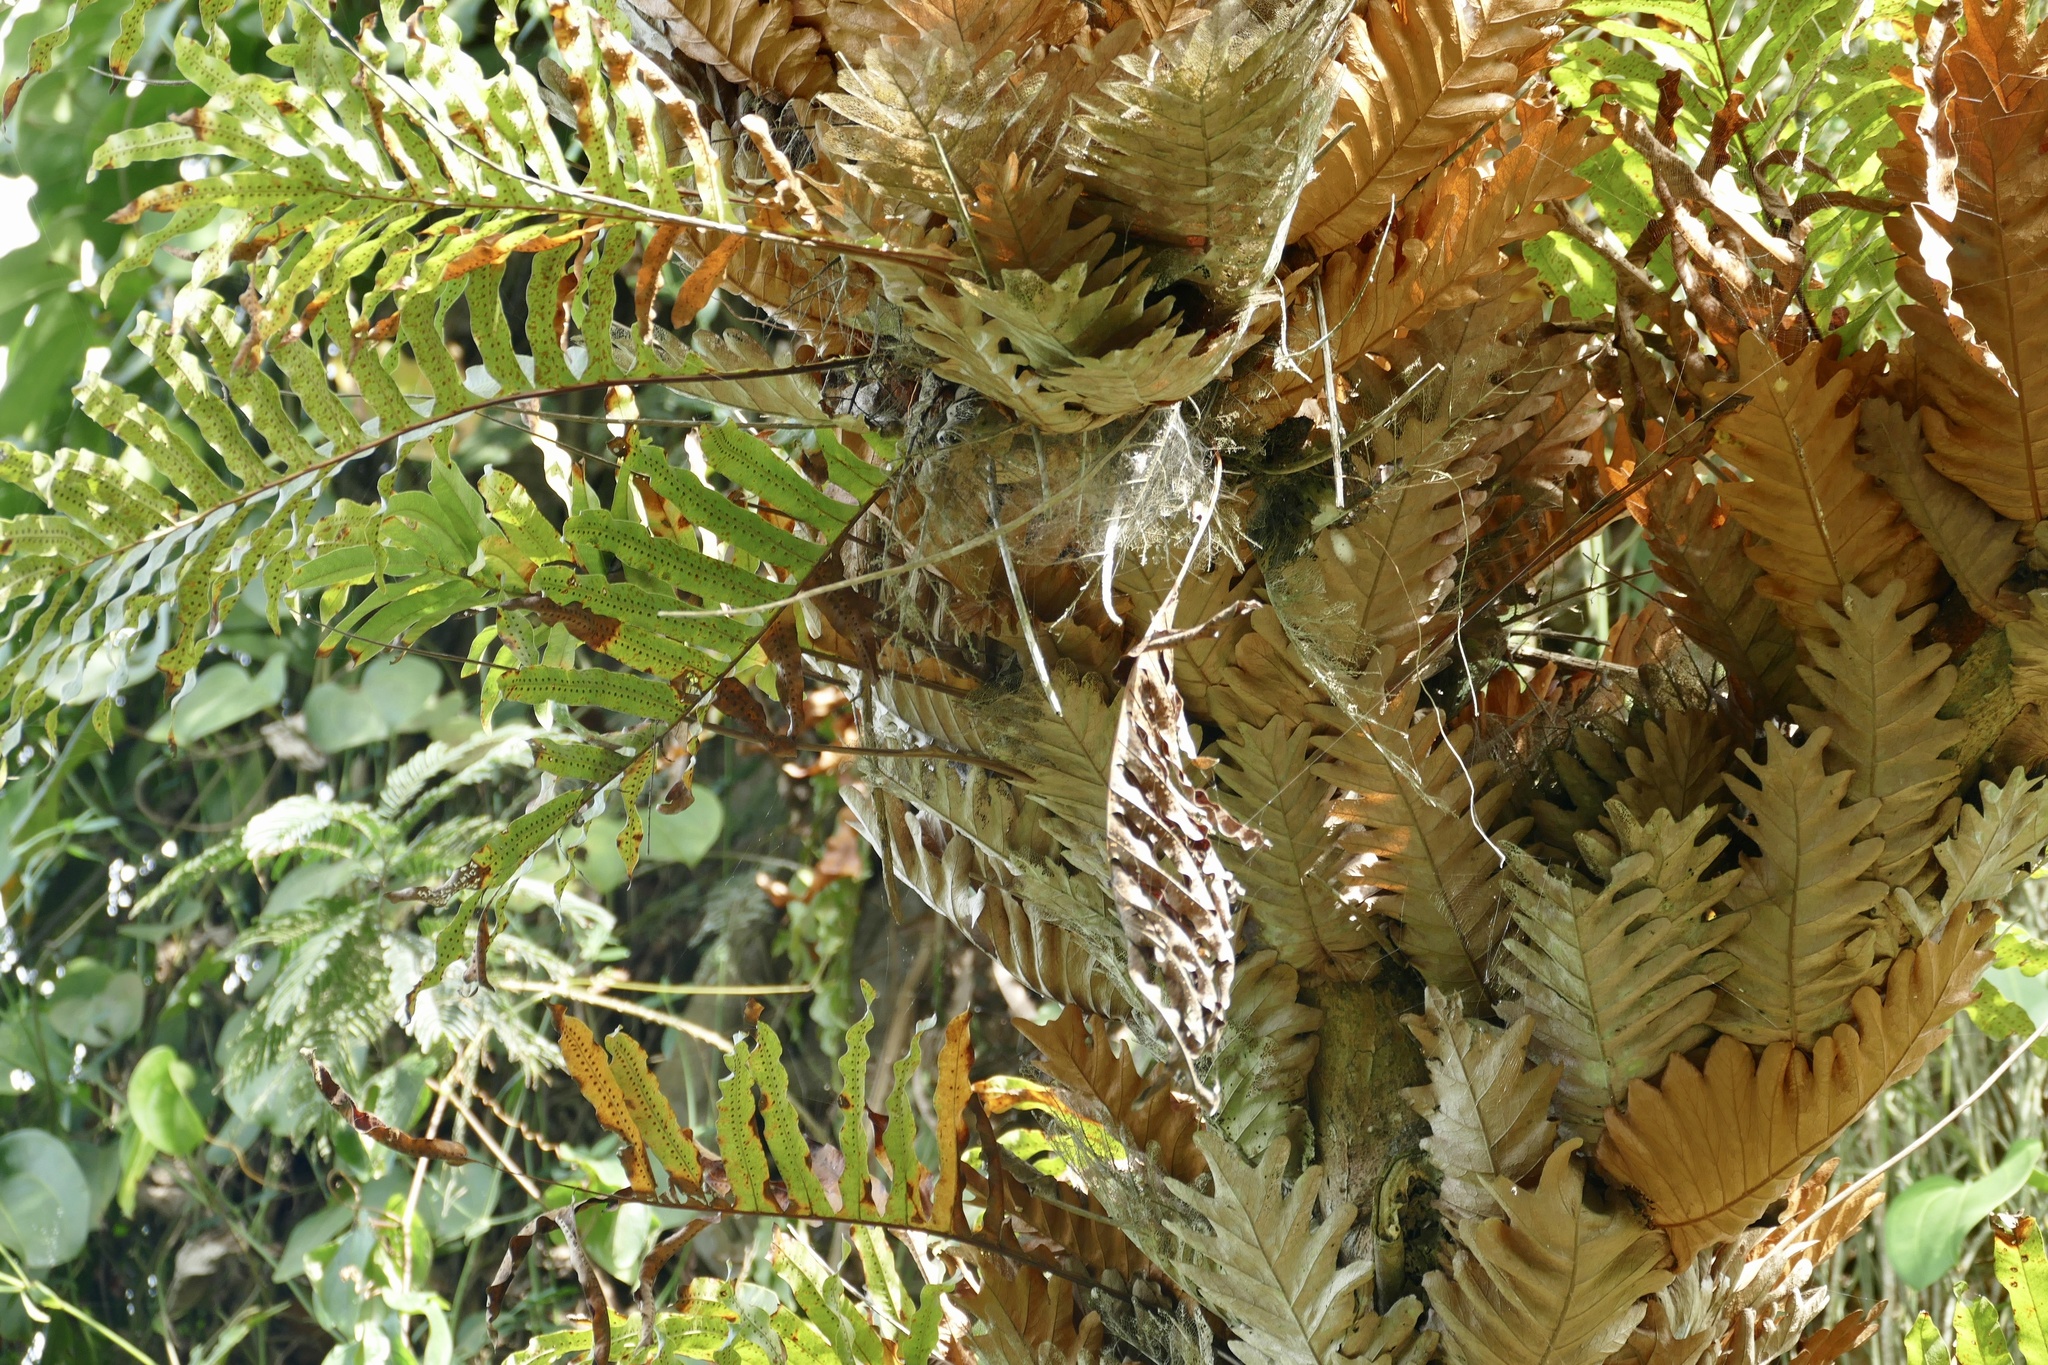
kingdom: Plantae
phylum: Tracheophyta
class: Polypodiopsida
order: Polypodiales
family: Polypodiaceae
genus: Drynaria
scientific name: Drynaria laurentii
